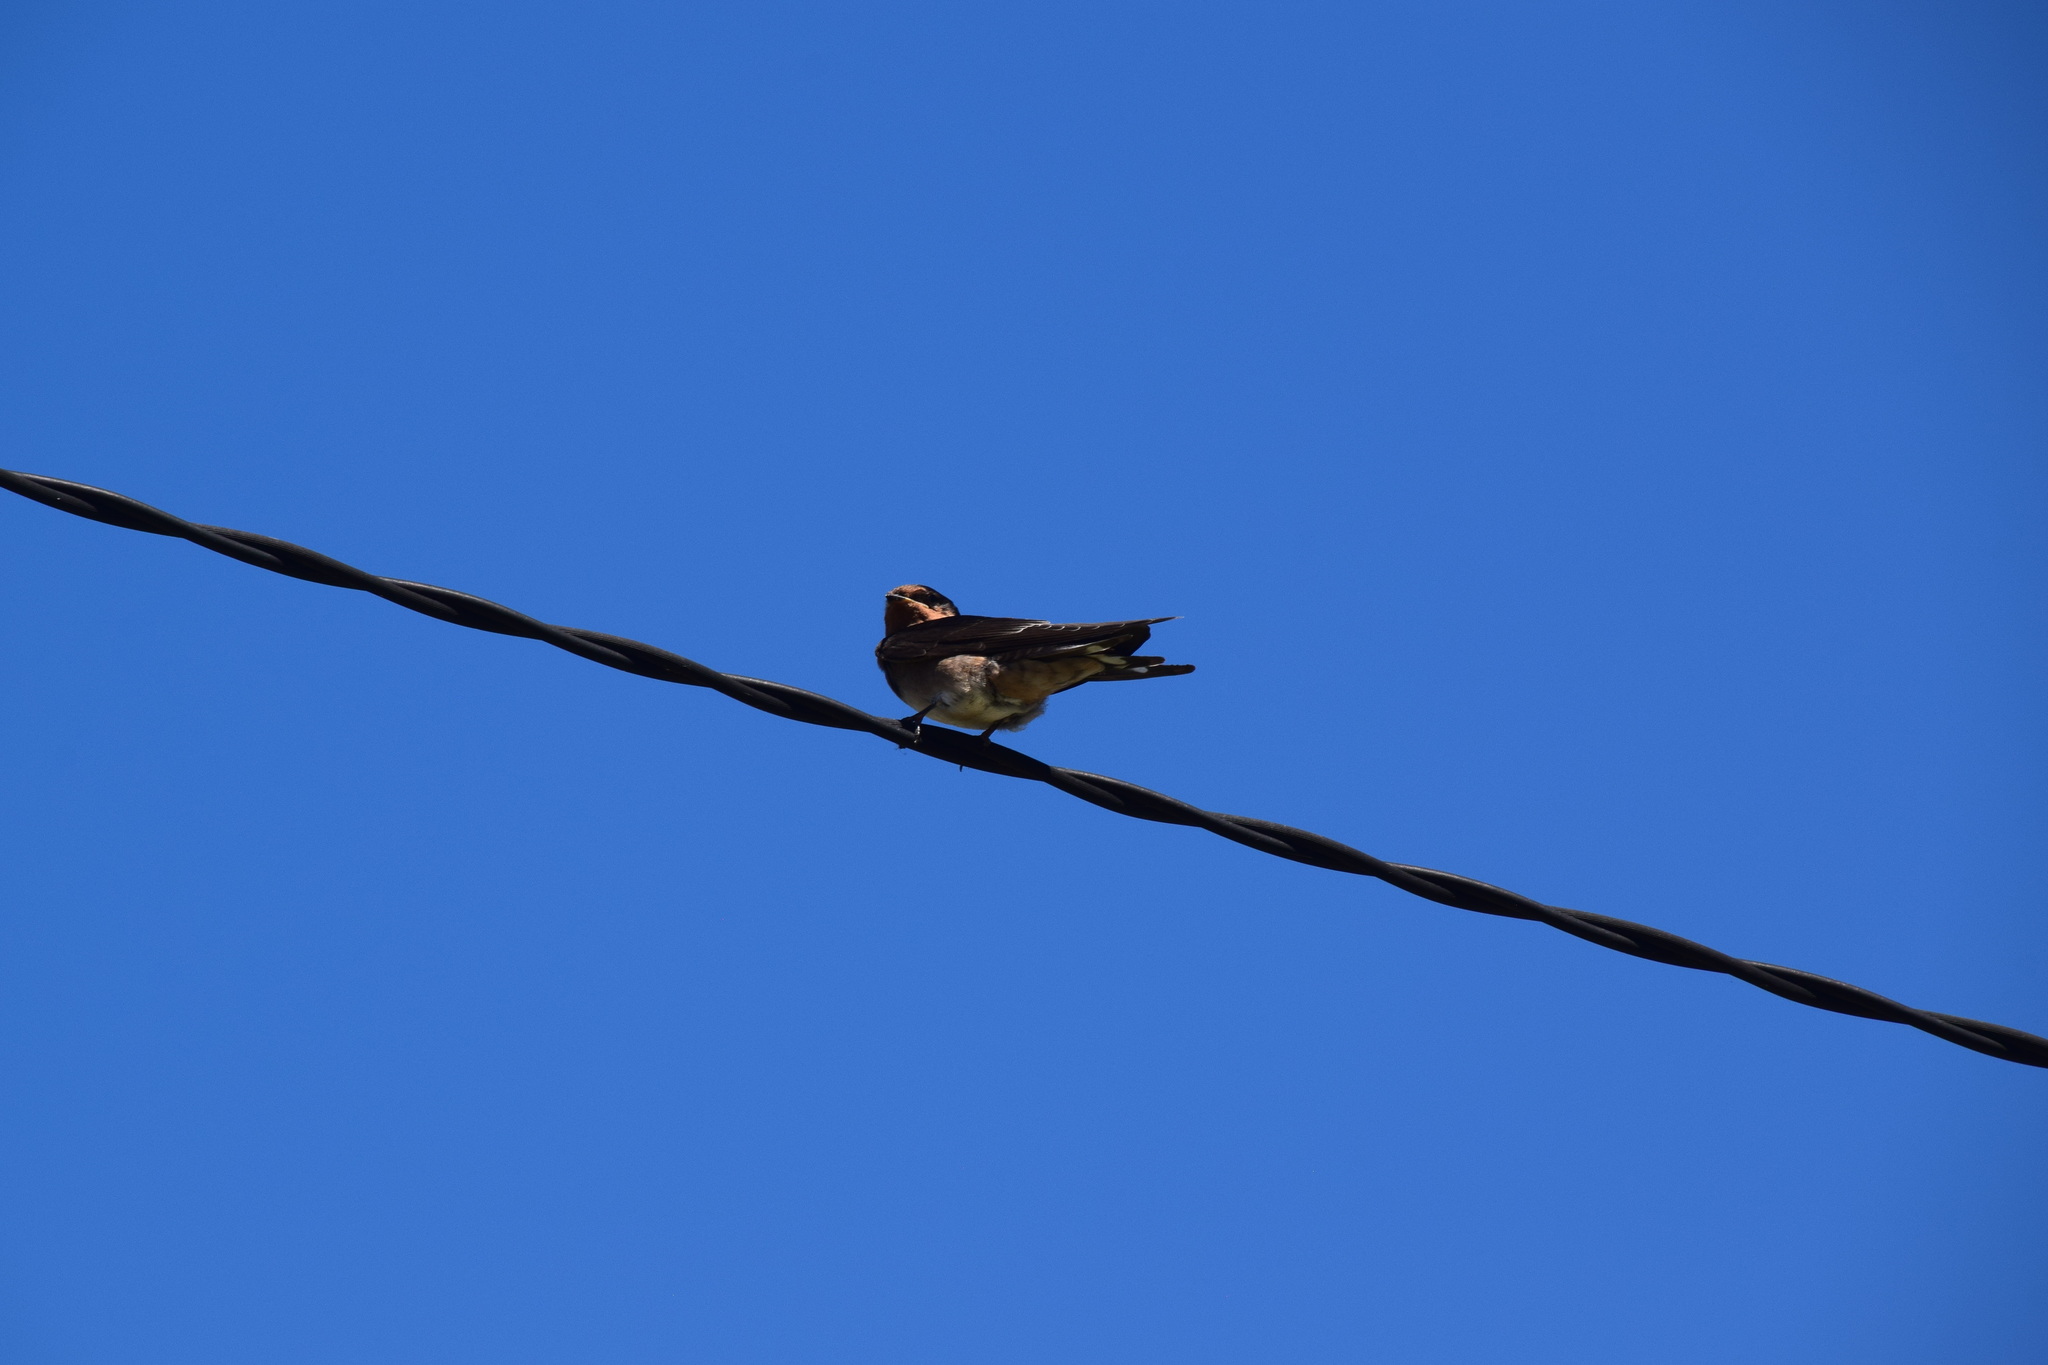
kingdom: Animalia
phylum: Chordata
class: Aves
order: Passeriformes
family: Hirundinidae
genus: Hirundo
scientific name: Hirundo neoxena
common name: Welcome swallow
